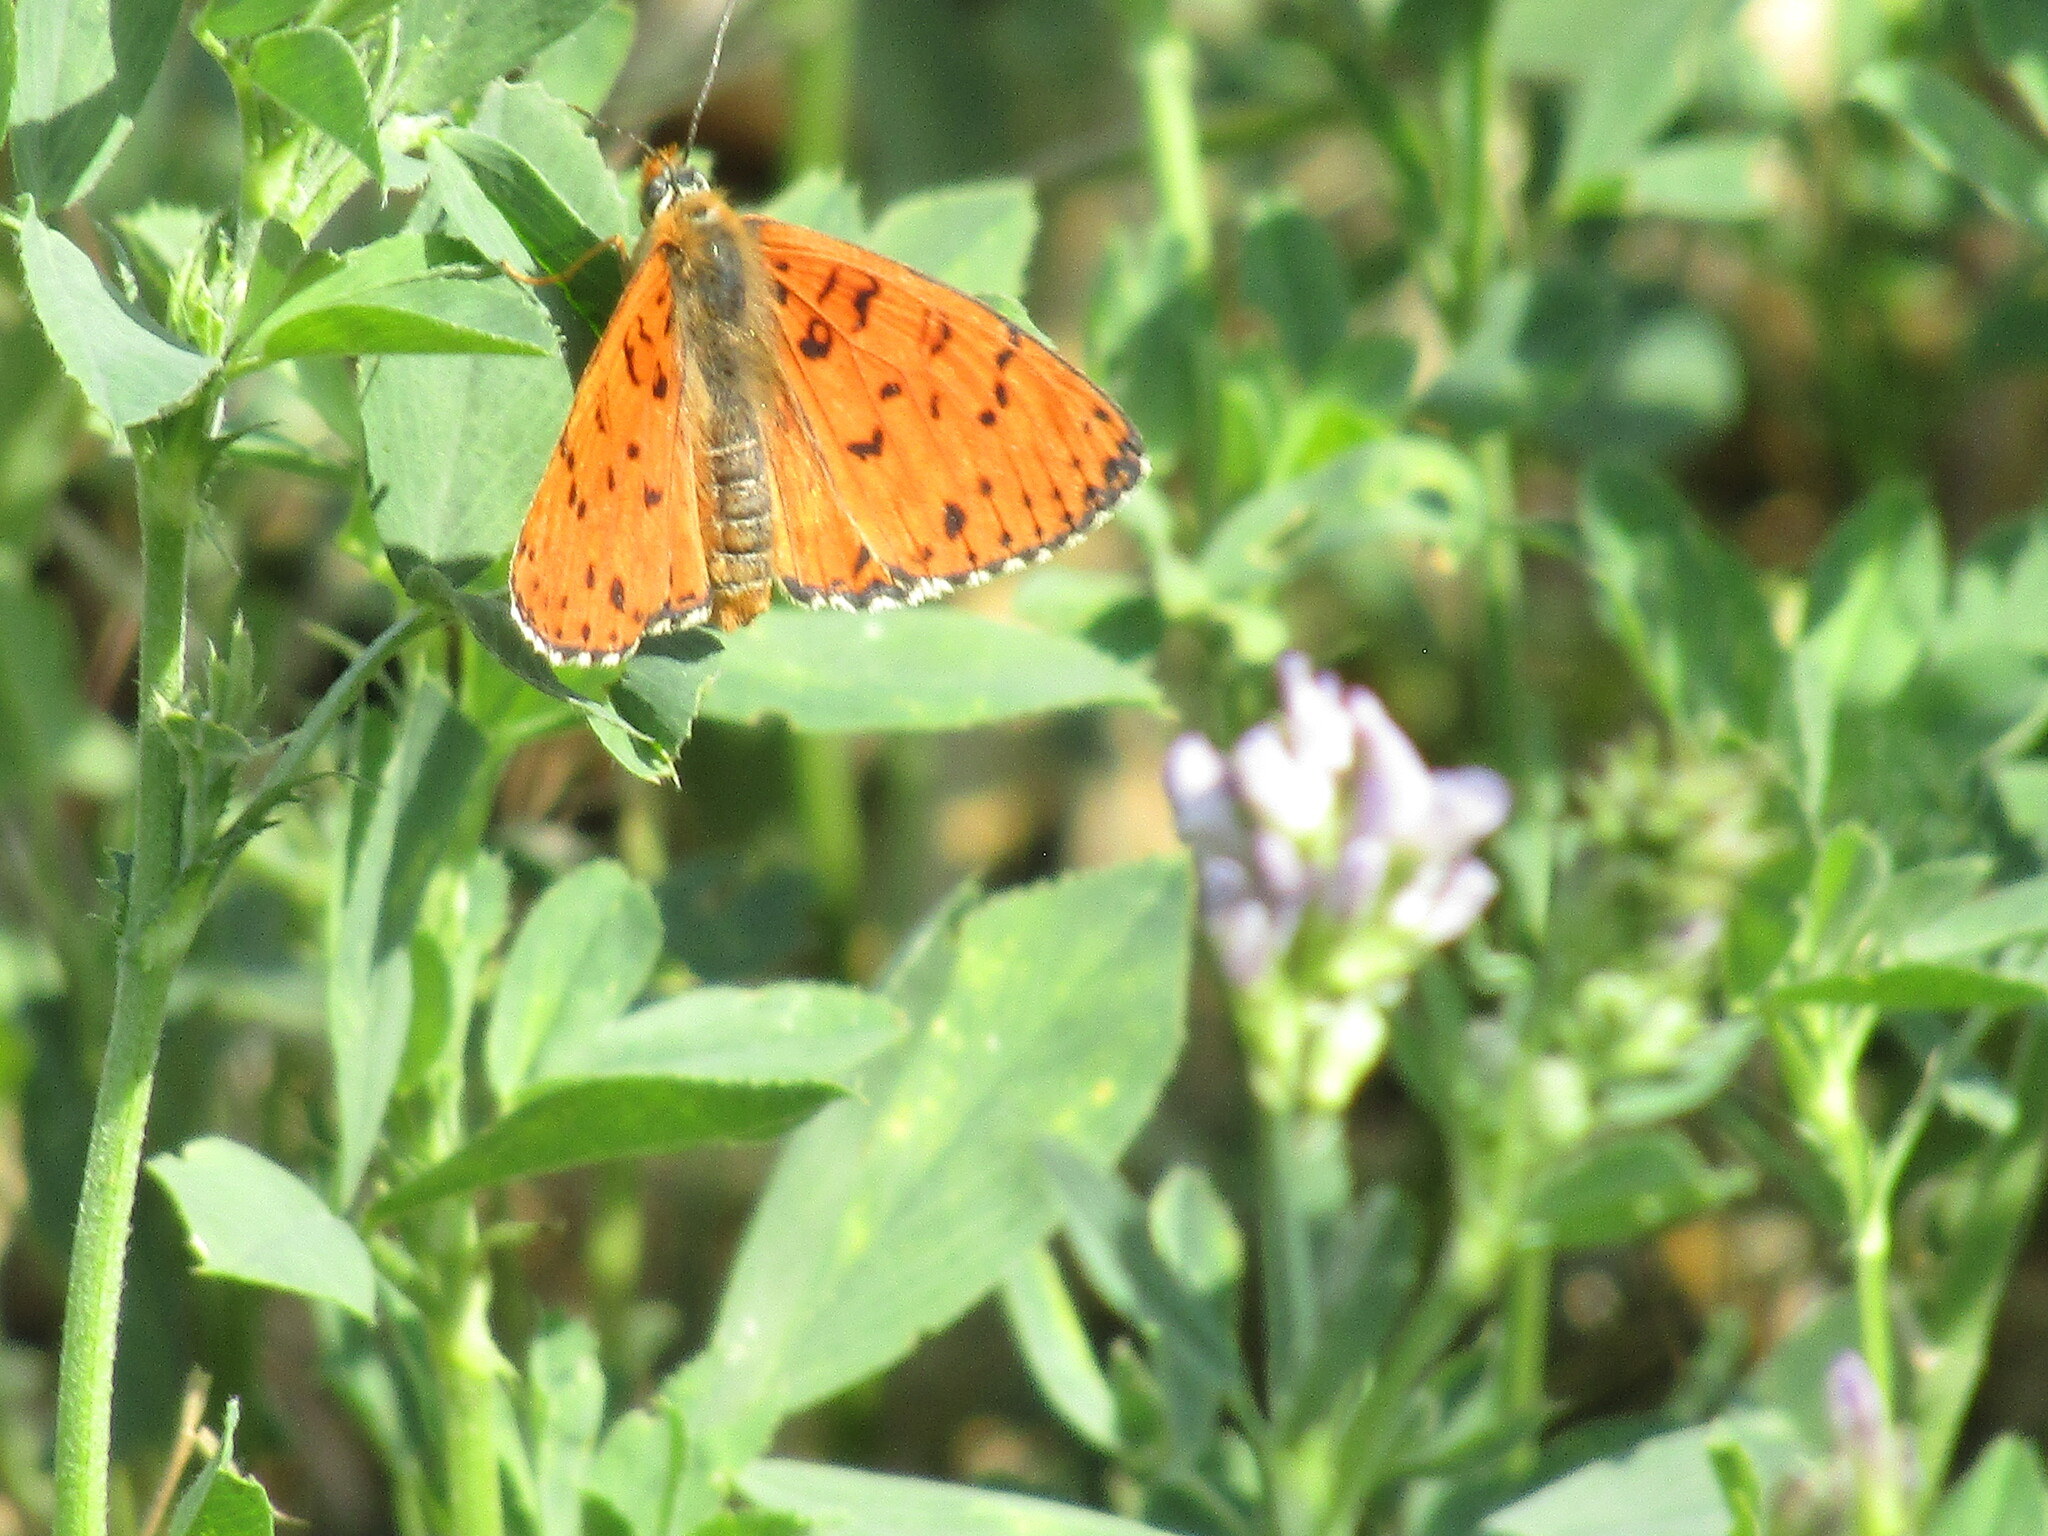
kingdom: Animalia
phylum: Arthropoda
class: Insecta
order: Lepidoptera
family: Nymphalidae
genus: Melitaea
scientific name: Melitaea didyma
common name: Spotted fritillary
